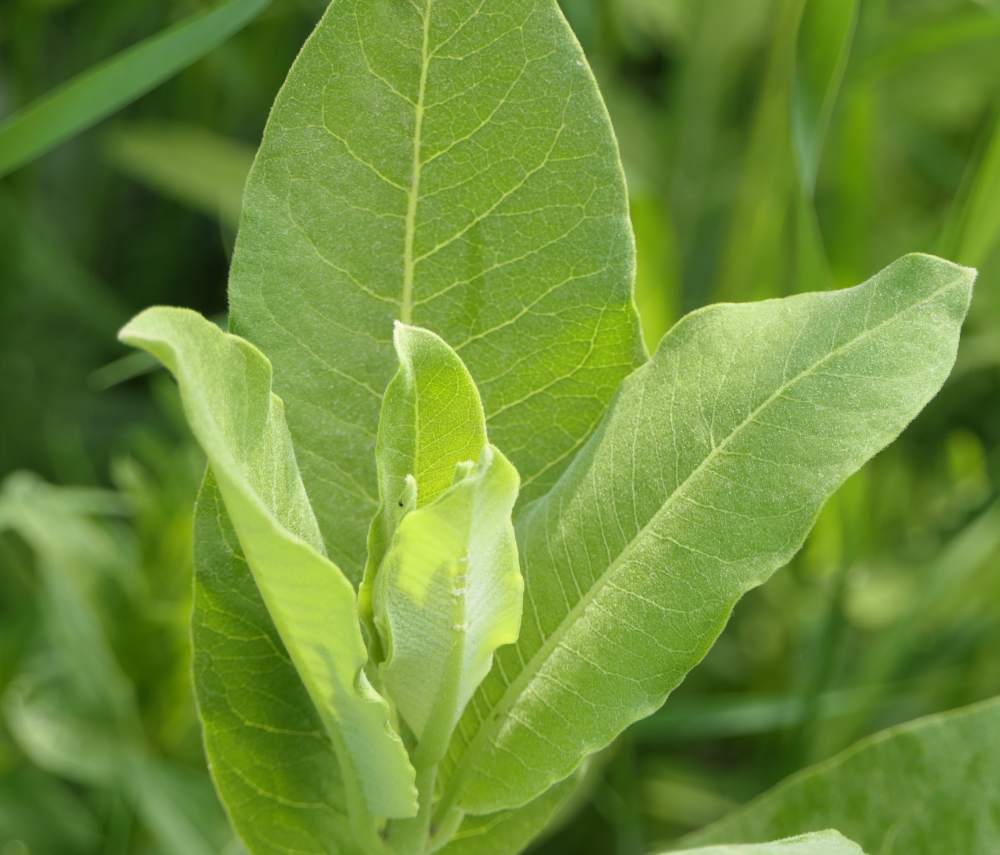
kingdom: Plantae
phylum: Tracheophyta
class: Magnoliopsida
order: Gentianales
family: Apocynaceae
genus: Asclepias
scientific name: Asclepias syriaca
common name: Common milkweed
